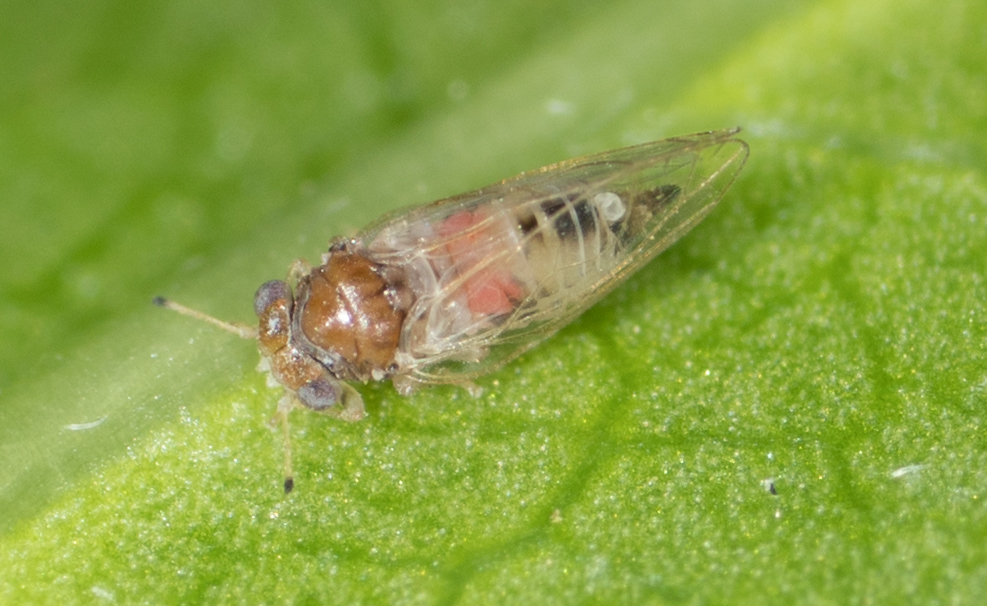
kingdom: Animalia
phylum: Arthropoda
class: Insecta
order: Hemiptera
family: Calophyidae
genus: Calophya
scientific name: Calophya californica
